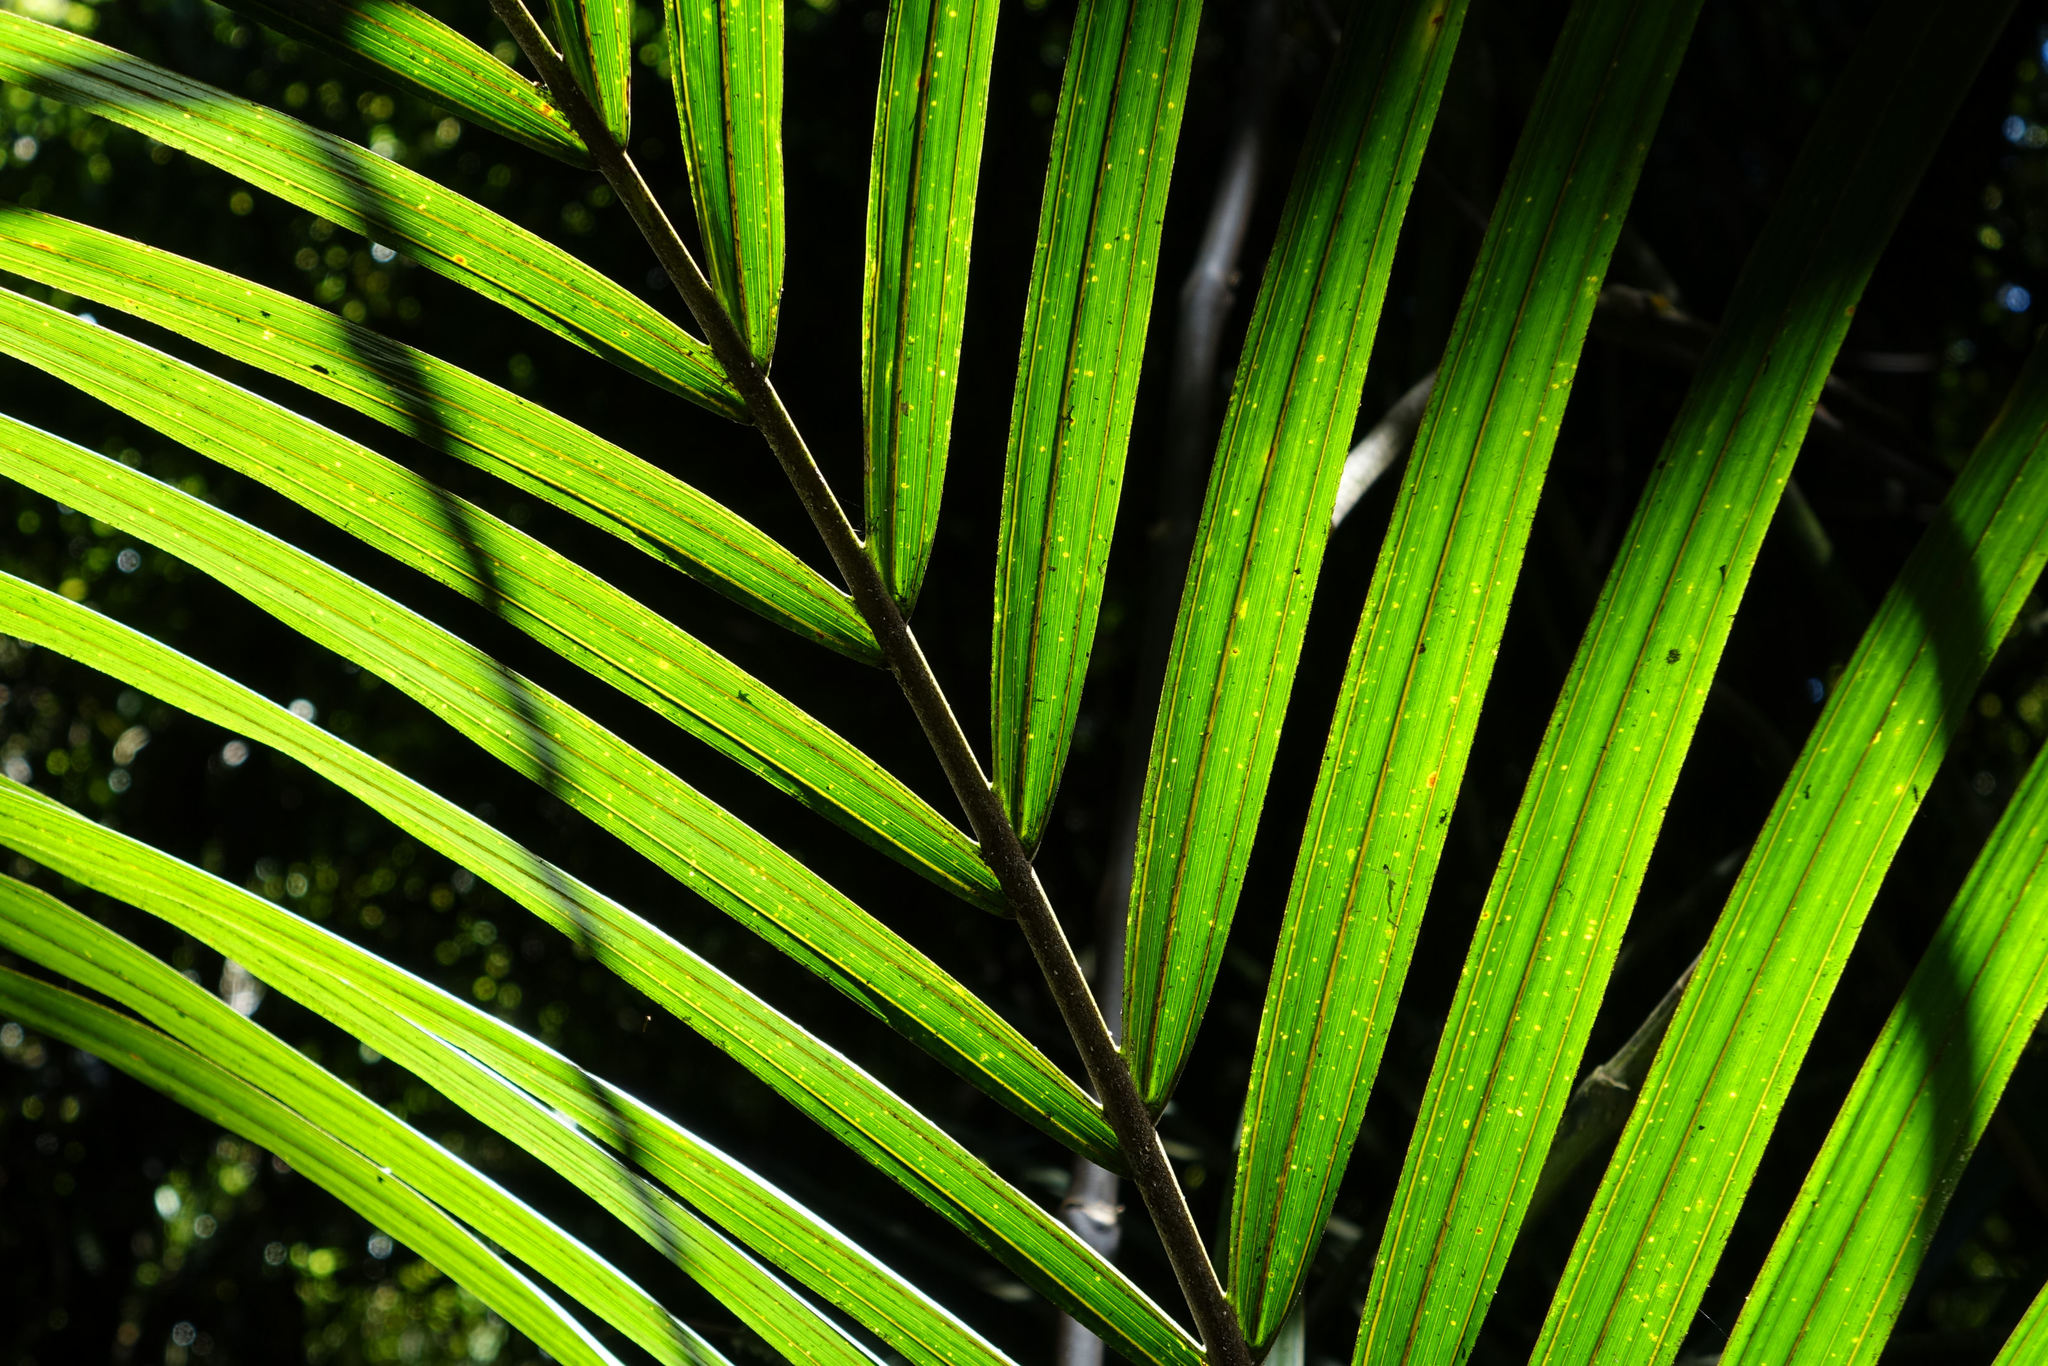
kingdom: Plantae
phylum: Tracheophyta
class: Liliopsida
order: Arecales
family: Arecaceae
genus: Rhopalostylis
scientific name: Rhopalostylis sapida
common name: Feather-duster palm
